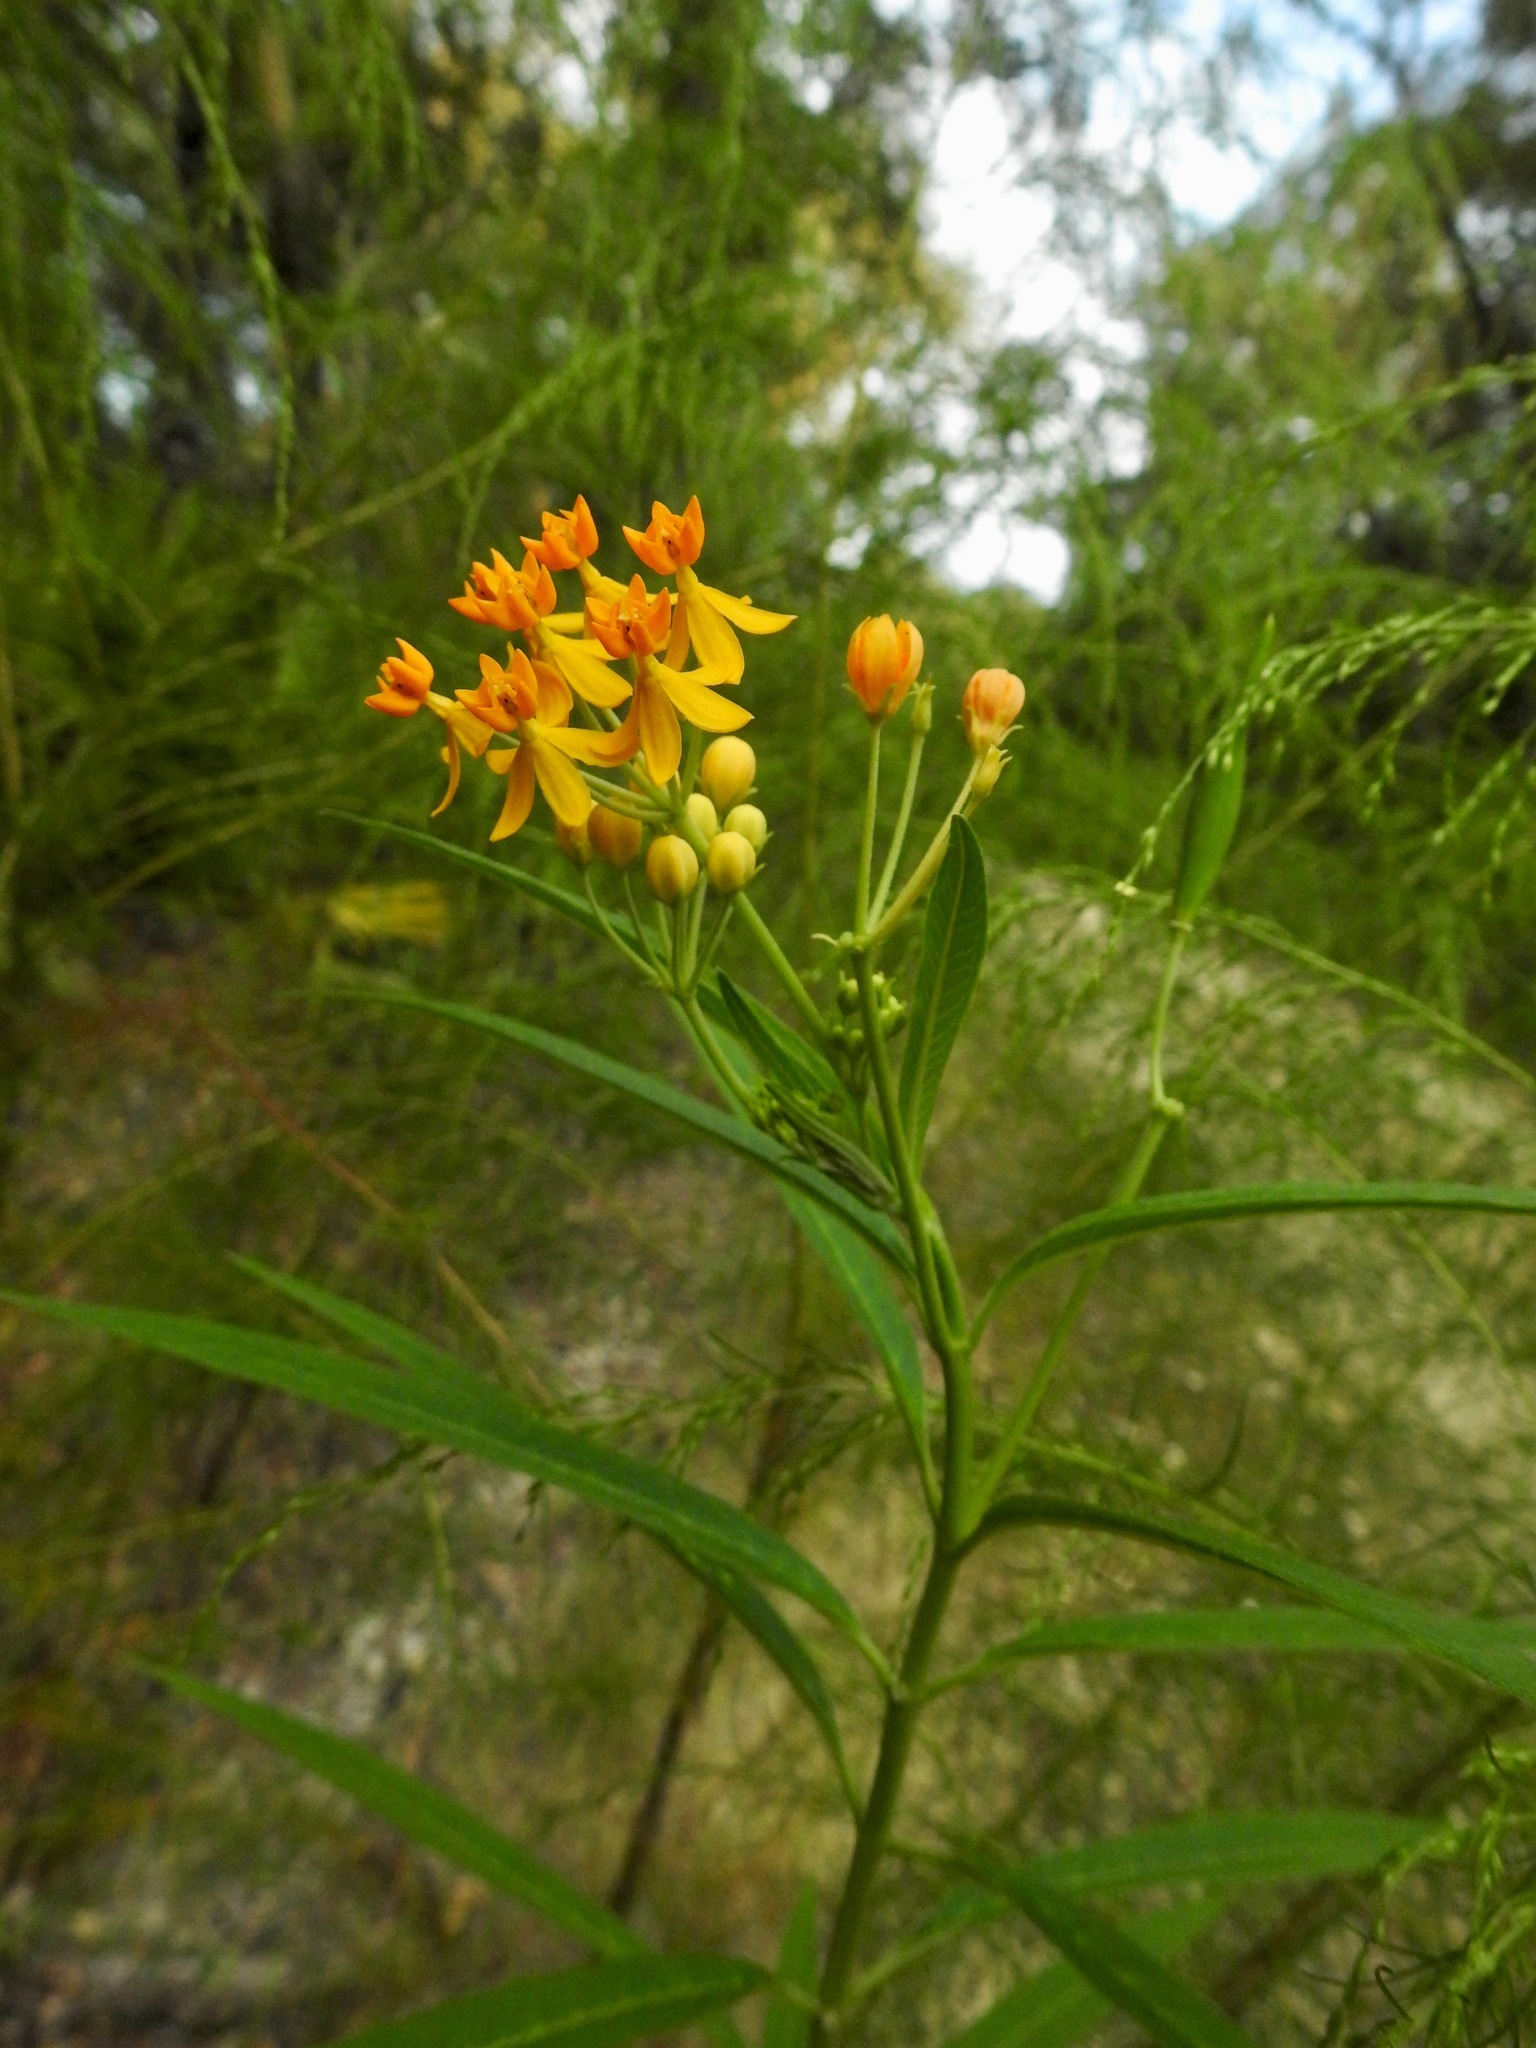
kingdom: Plantae
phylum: Tracheophyta
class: Magnoliopsida
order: Gentianales
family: Apocynaceae
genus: Asclepias
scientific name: Asclepias curassavica
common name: Bloodflower
